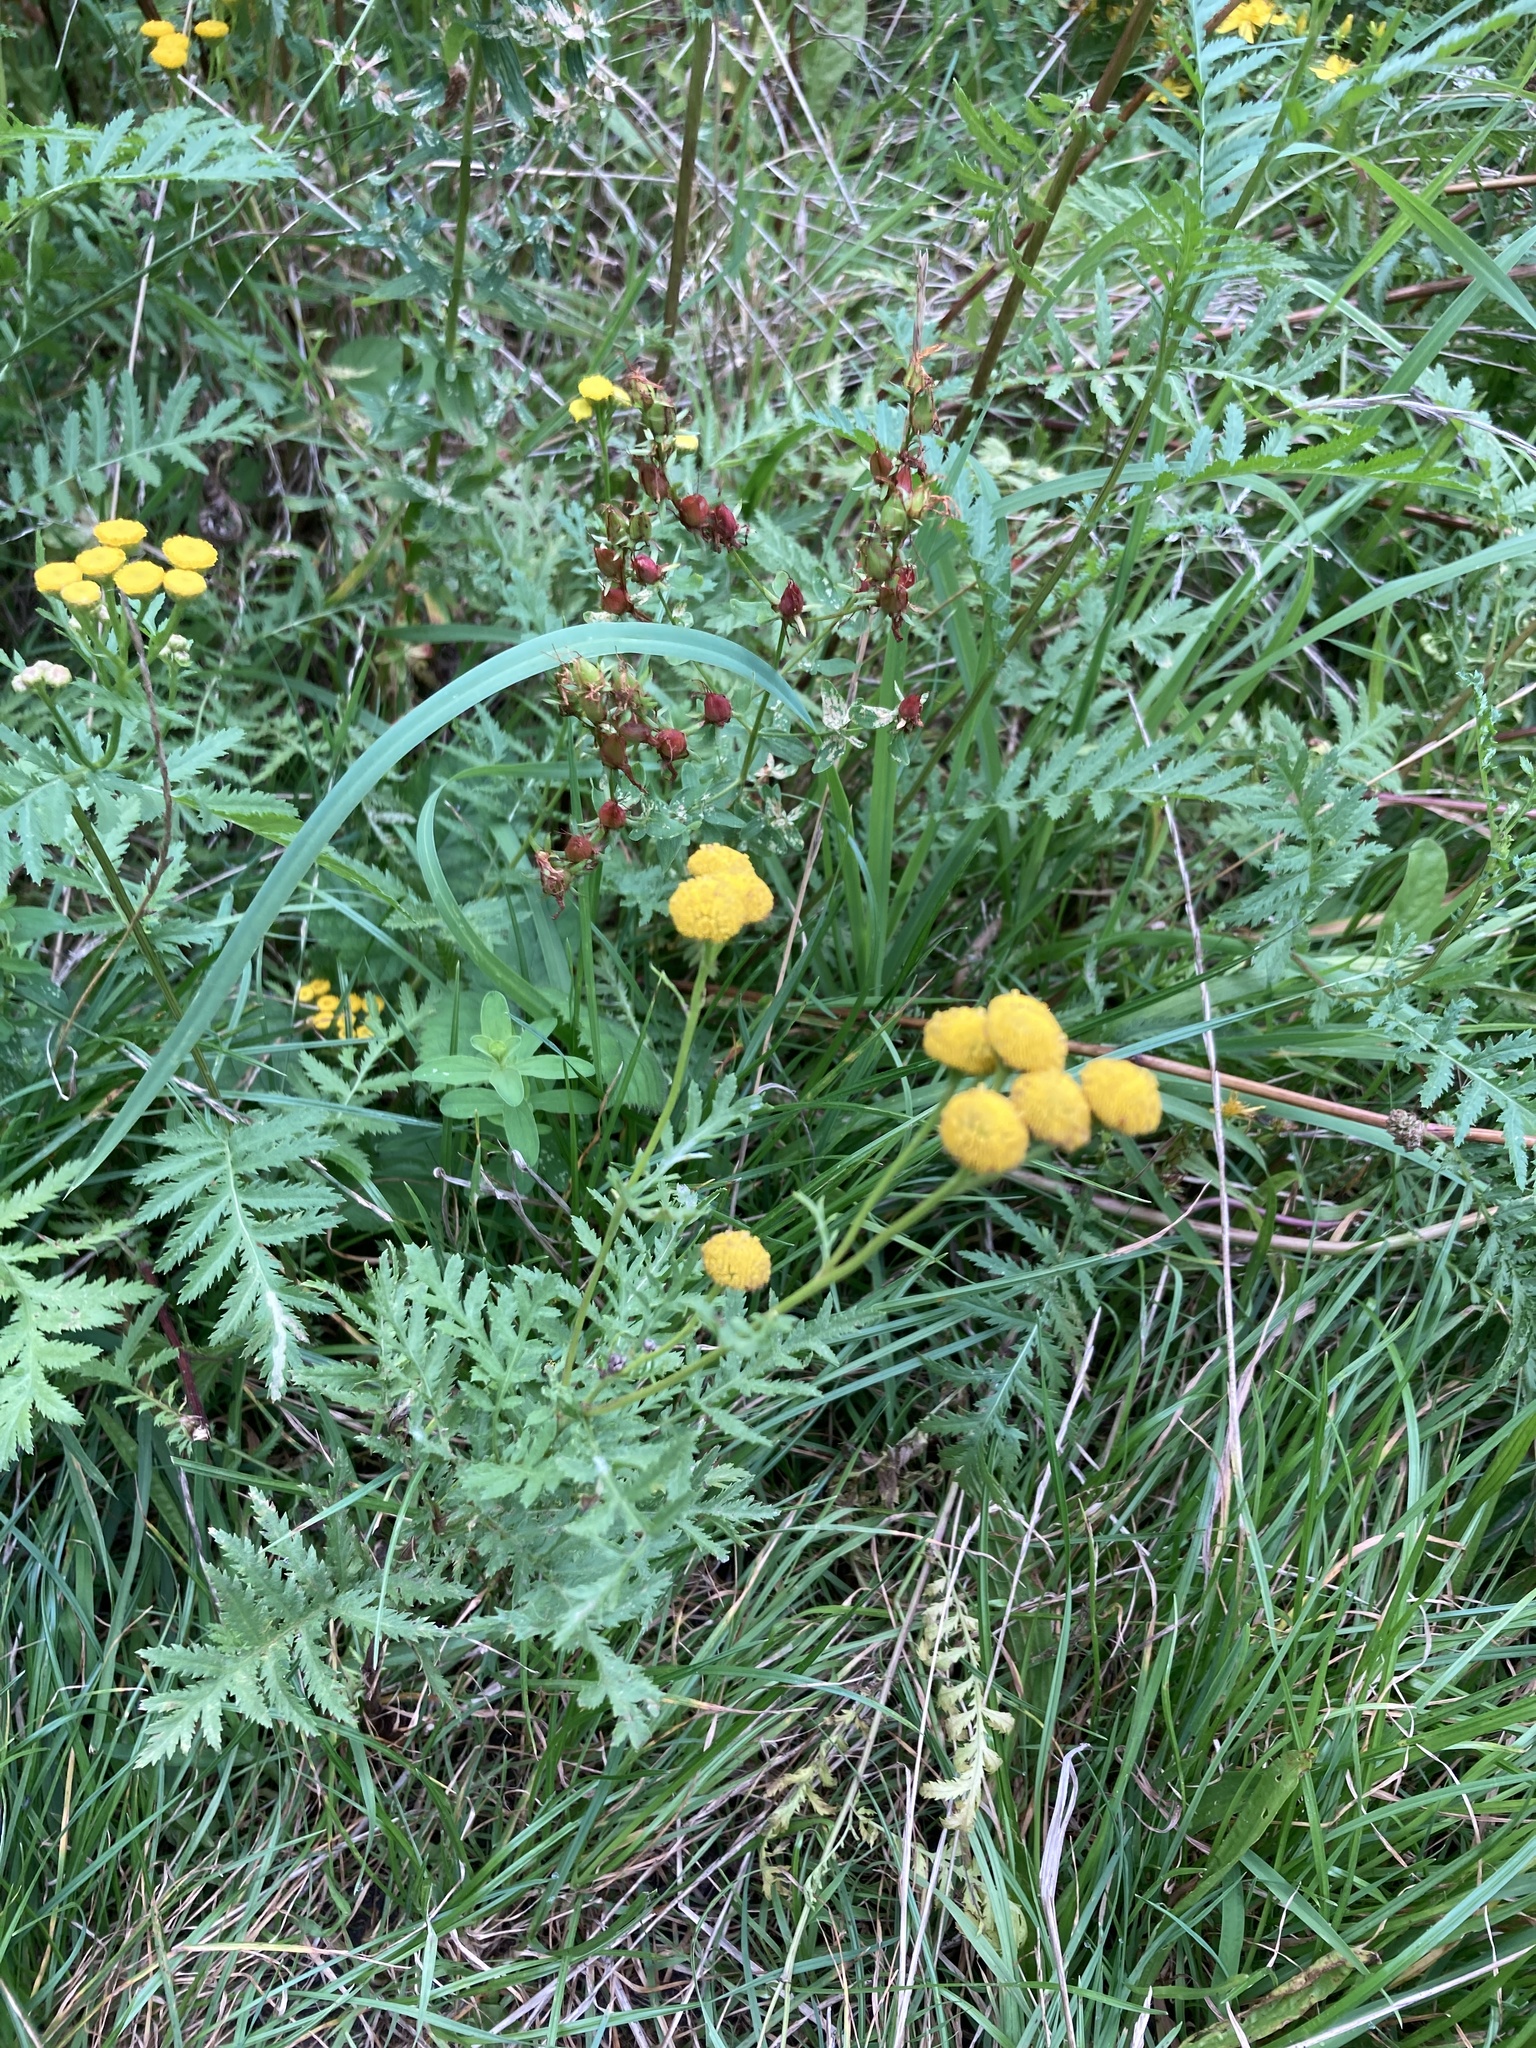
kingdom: Plantae
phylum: Tracheophyta
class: Magnoliopsida
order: Asterales
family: Asteraceae
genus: Tanacetum
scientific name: Tanacetum vulgare
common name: Common tansy
